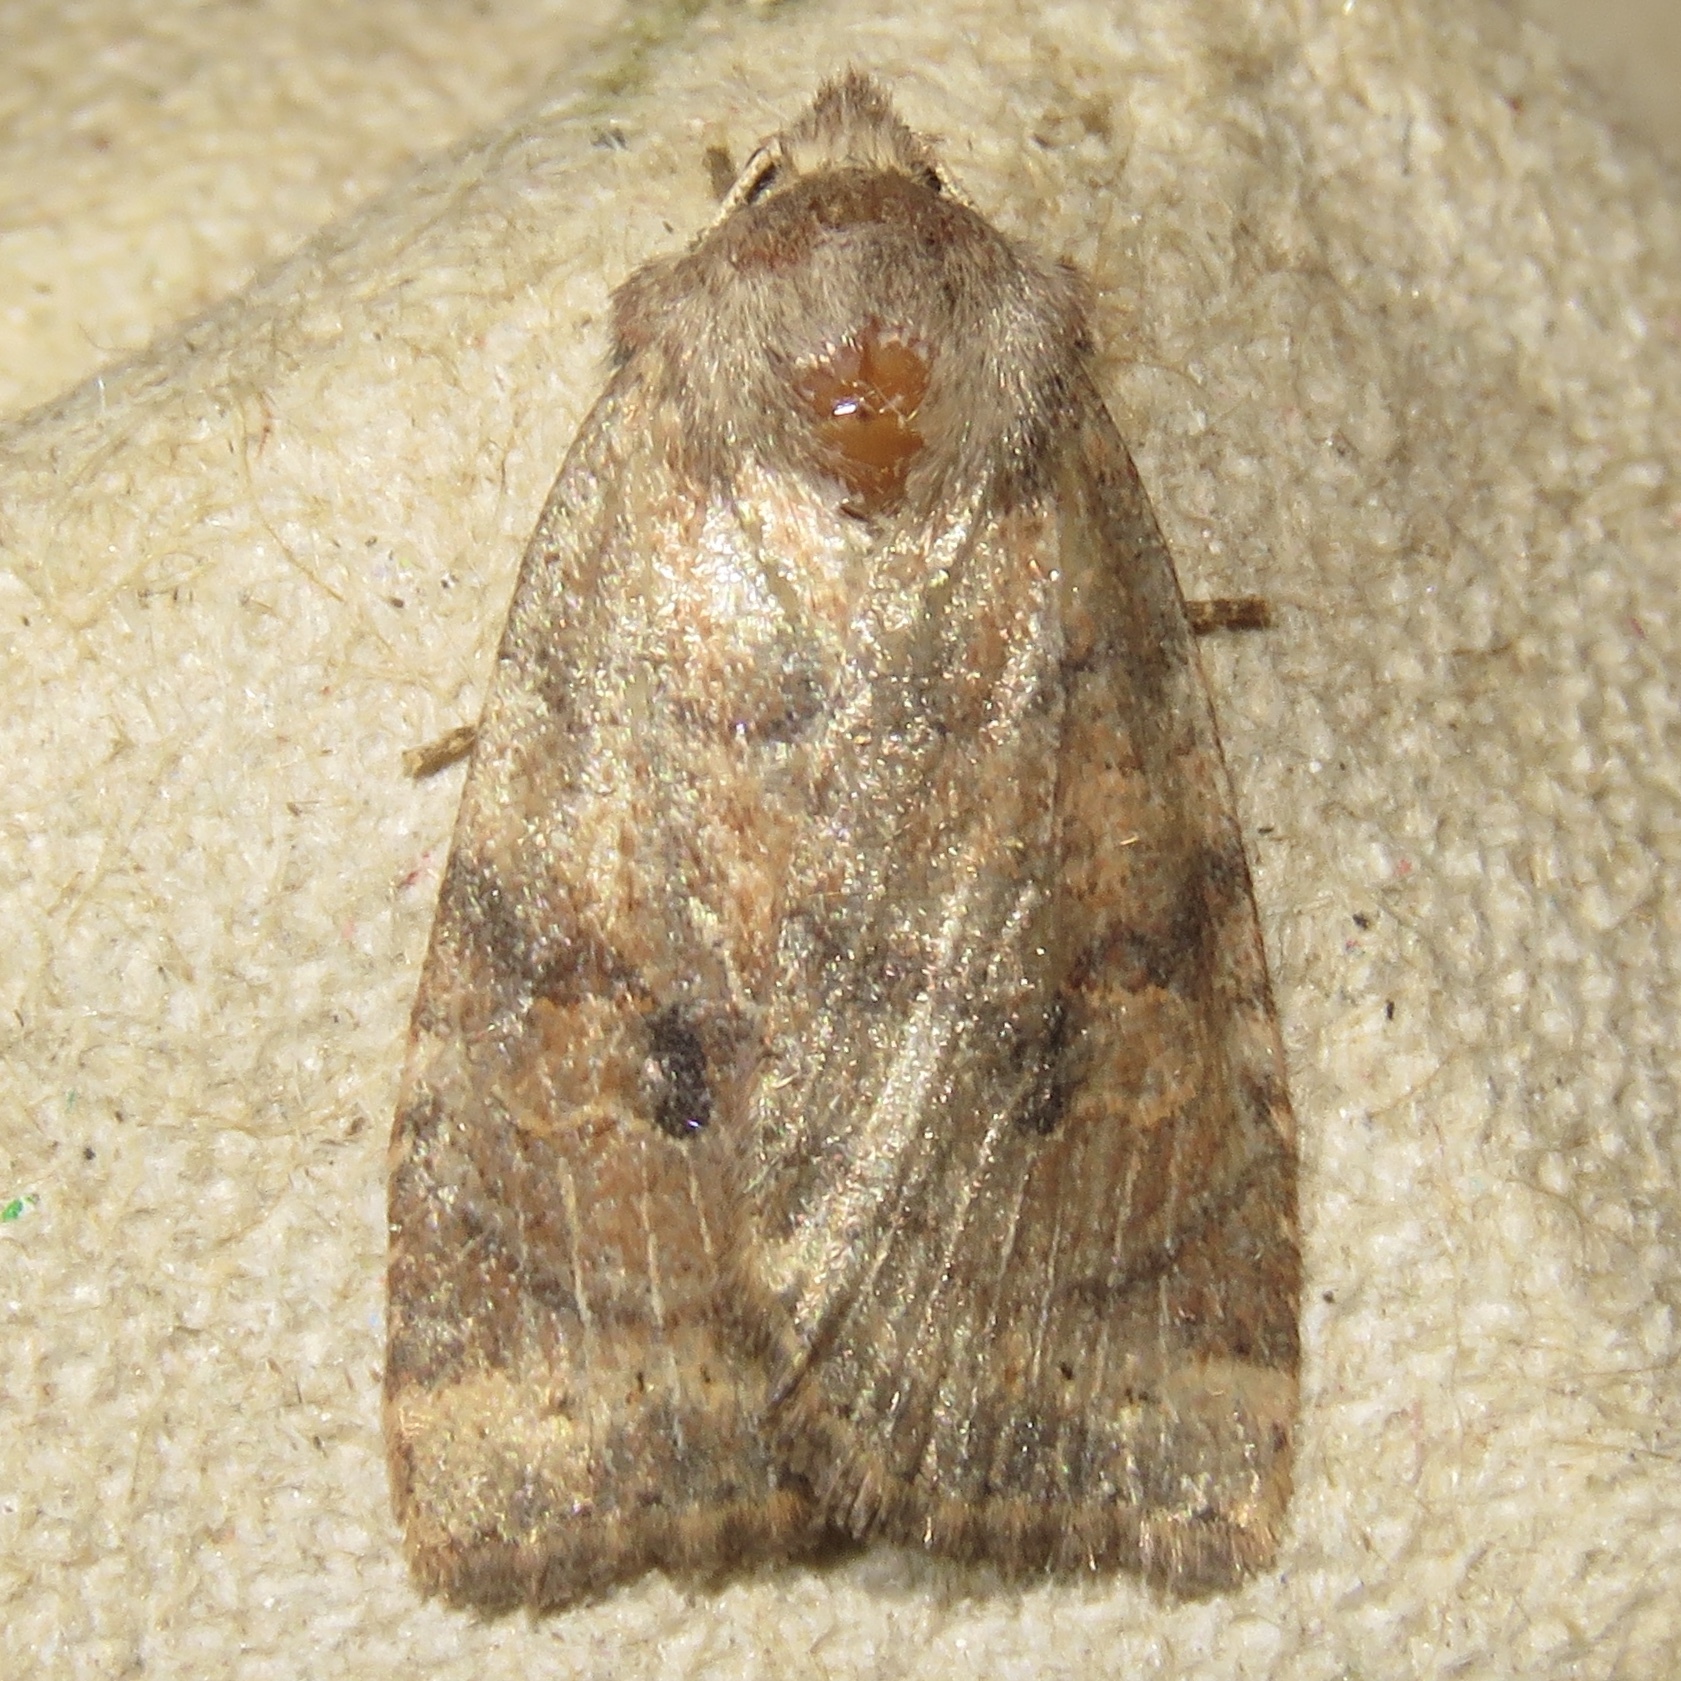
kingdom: Animalia
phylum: Arthropoda
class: Insecta
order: Lepidoptera
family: Noctuidae
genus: Anathix
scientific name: Anathix puta
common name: Puta sallow
